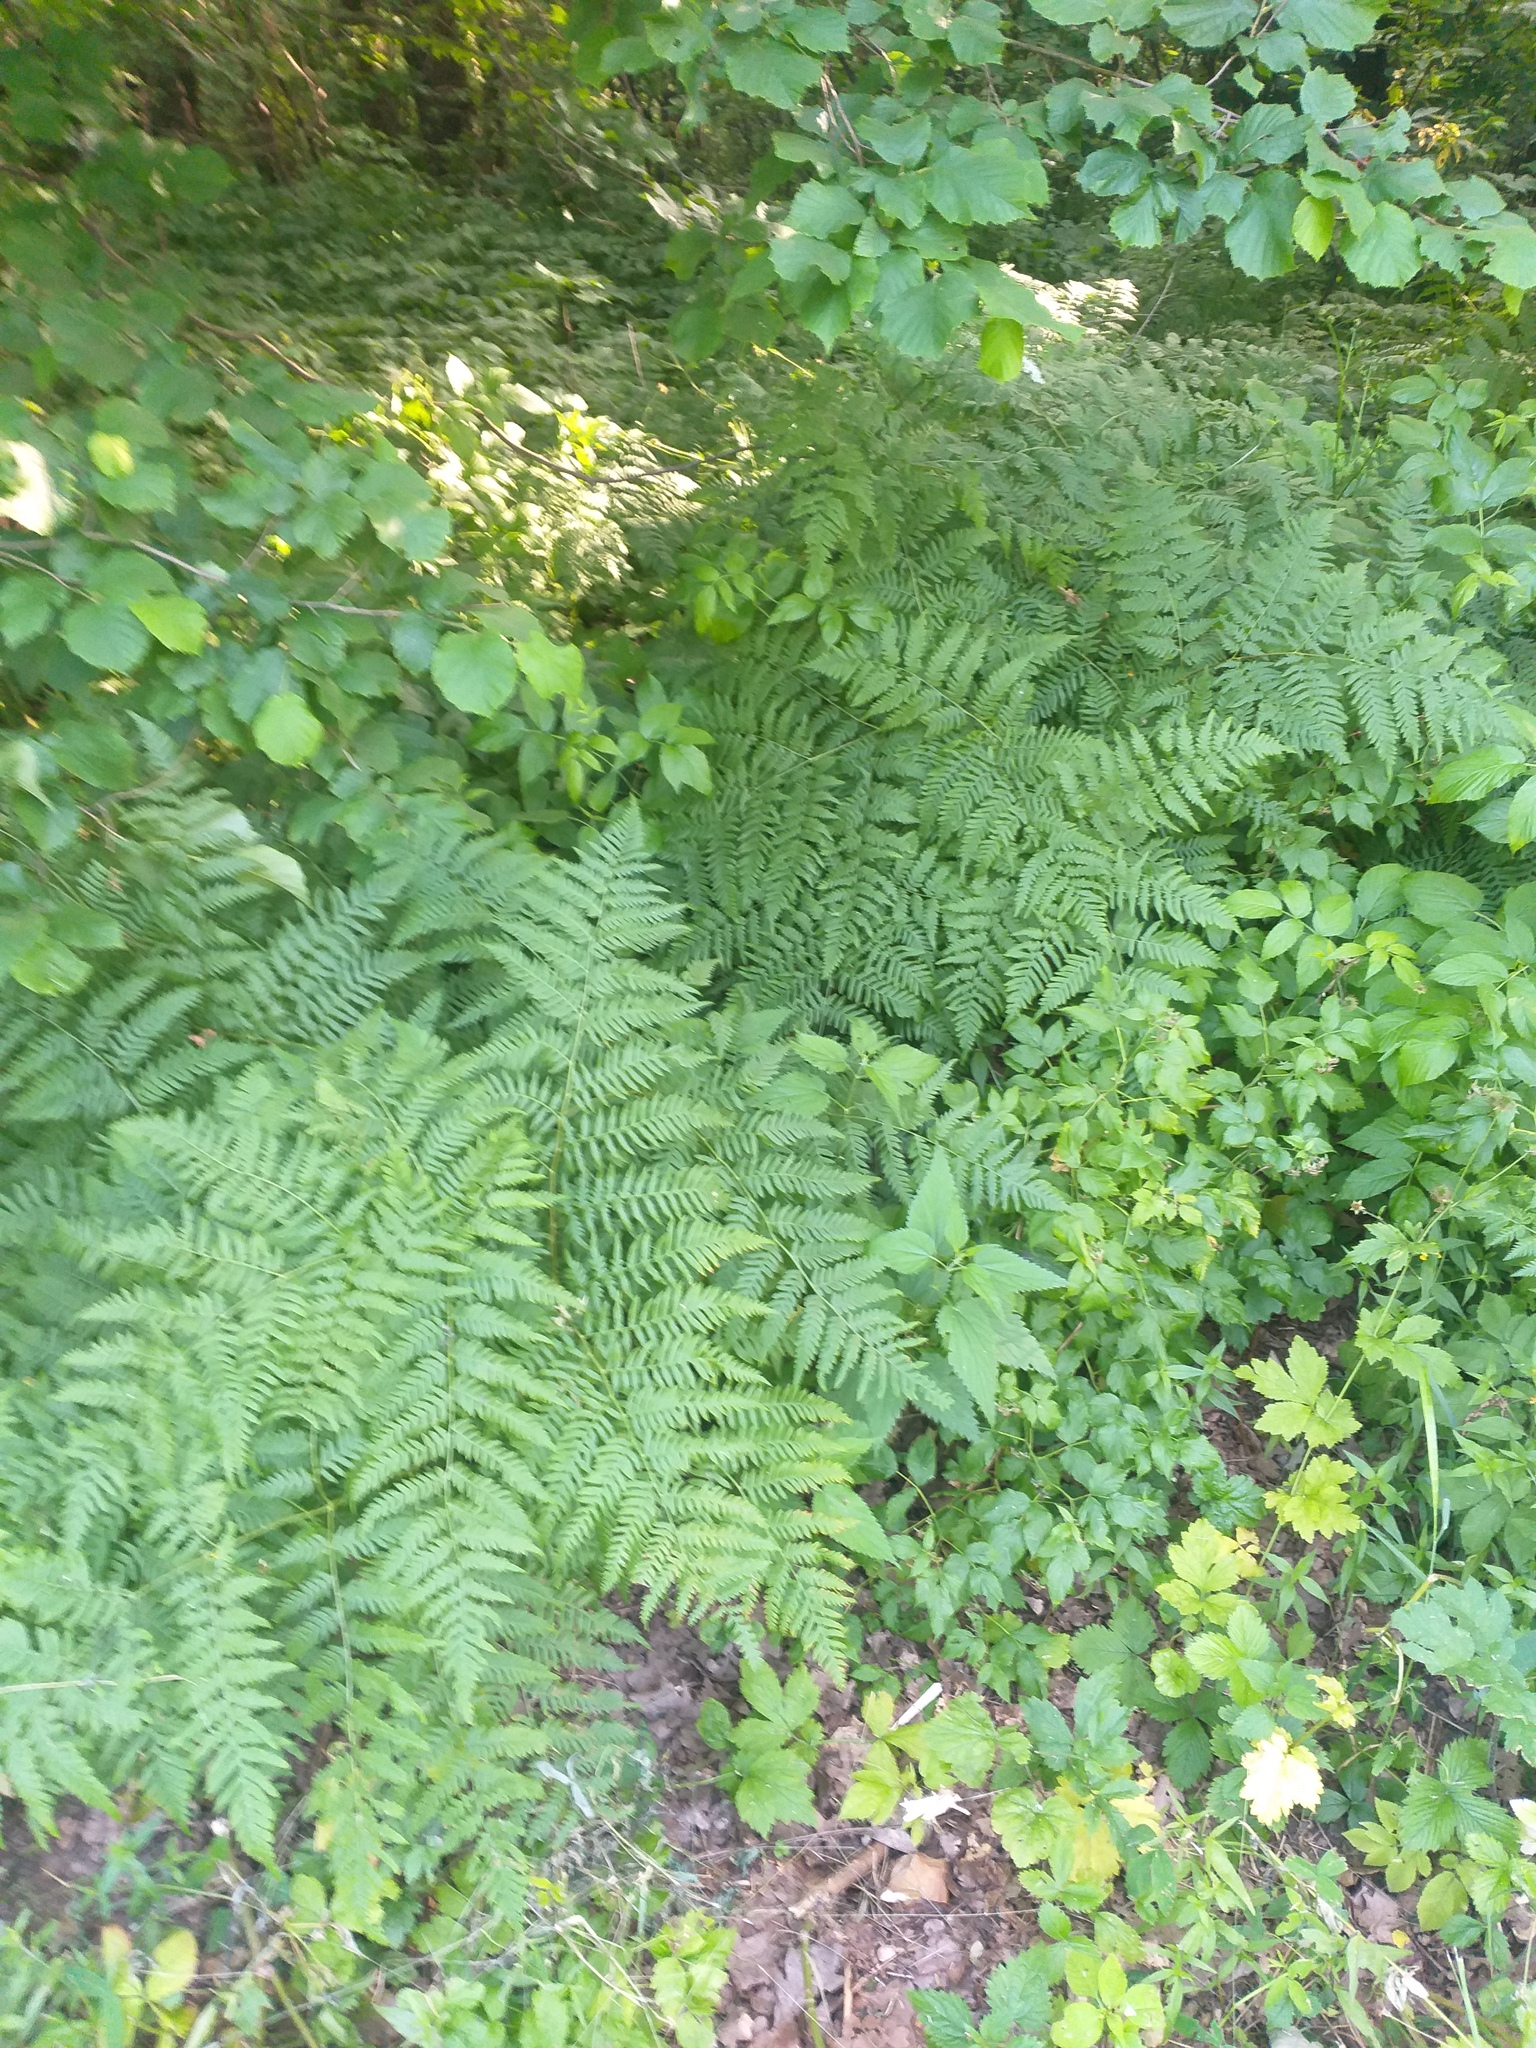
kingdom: Plantae
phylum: Tracheophyta
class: Polypodiopsida
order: Polypodiales
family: Dennstaedtiaceae
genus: Pteridium
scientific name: Pteridium aquilinum
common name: Bracken
